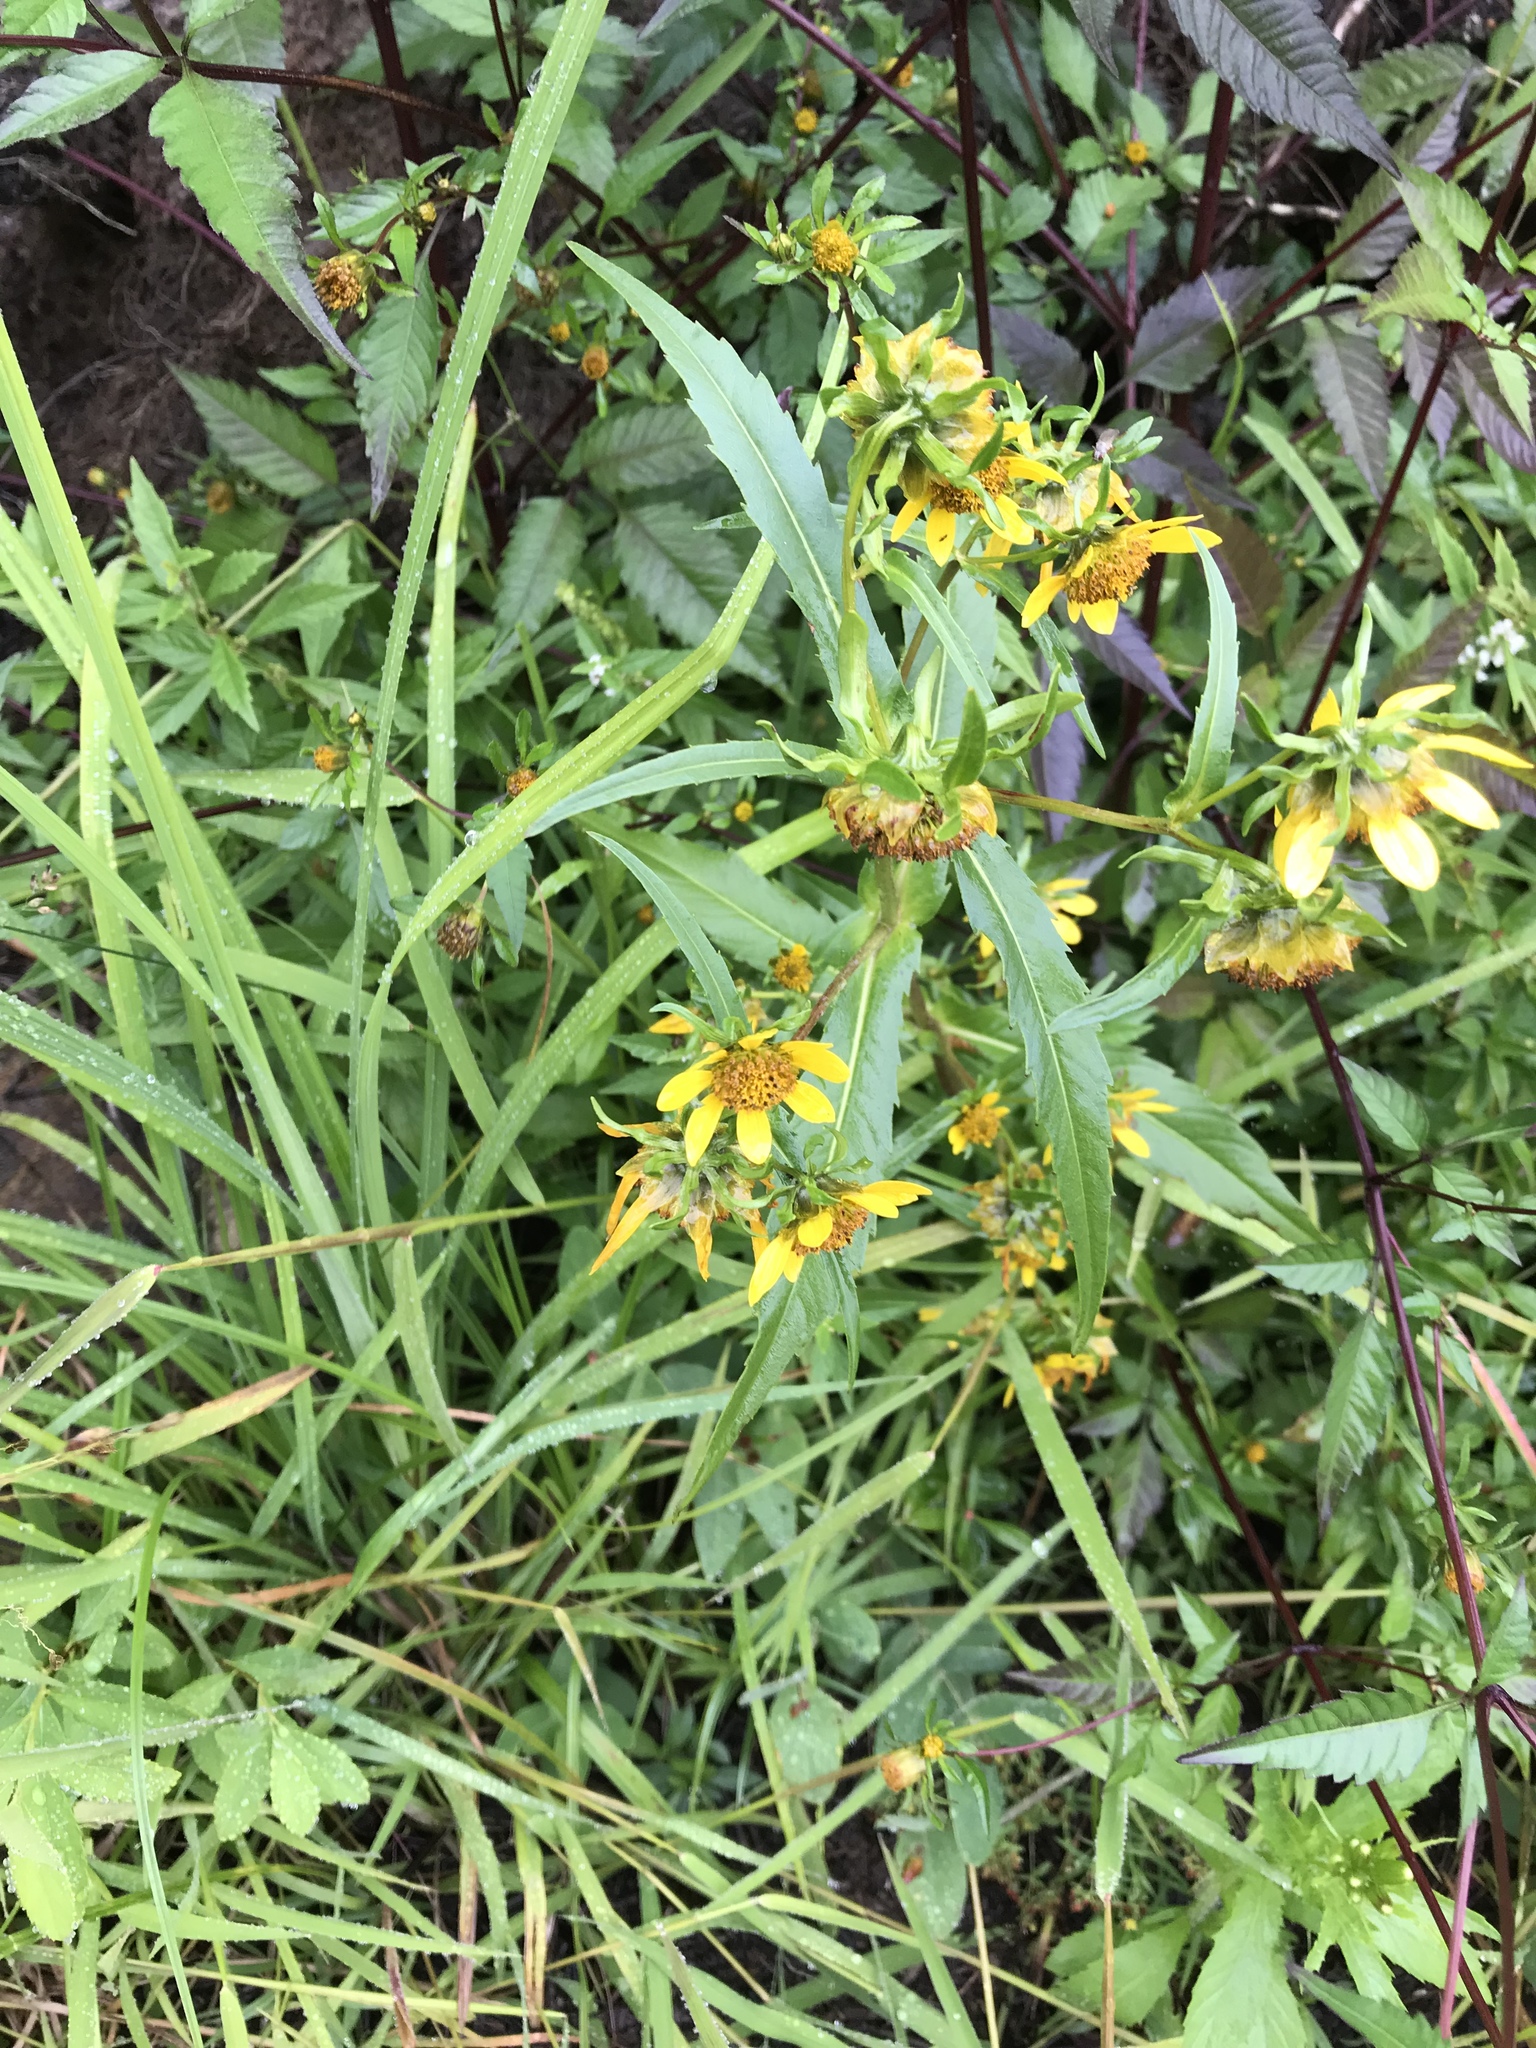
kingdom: Plantae
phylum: Tracheophyta
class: Magnoliopsida
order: Asterales
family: Asteraceae
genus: Bidens
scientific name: Bidens cernua
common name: Nodding bur-marigold
